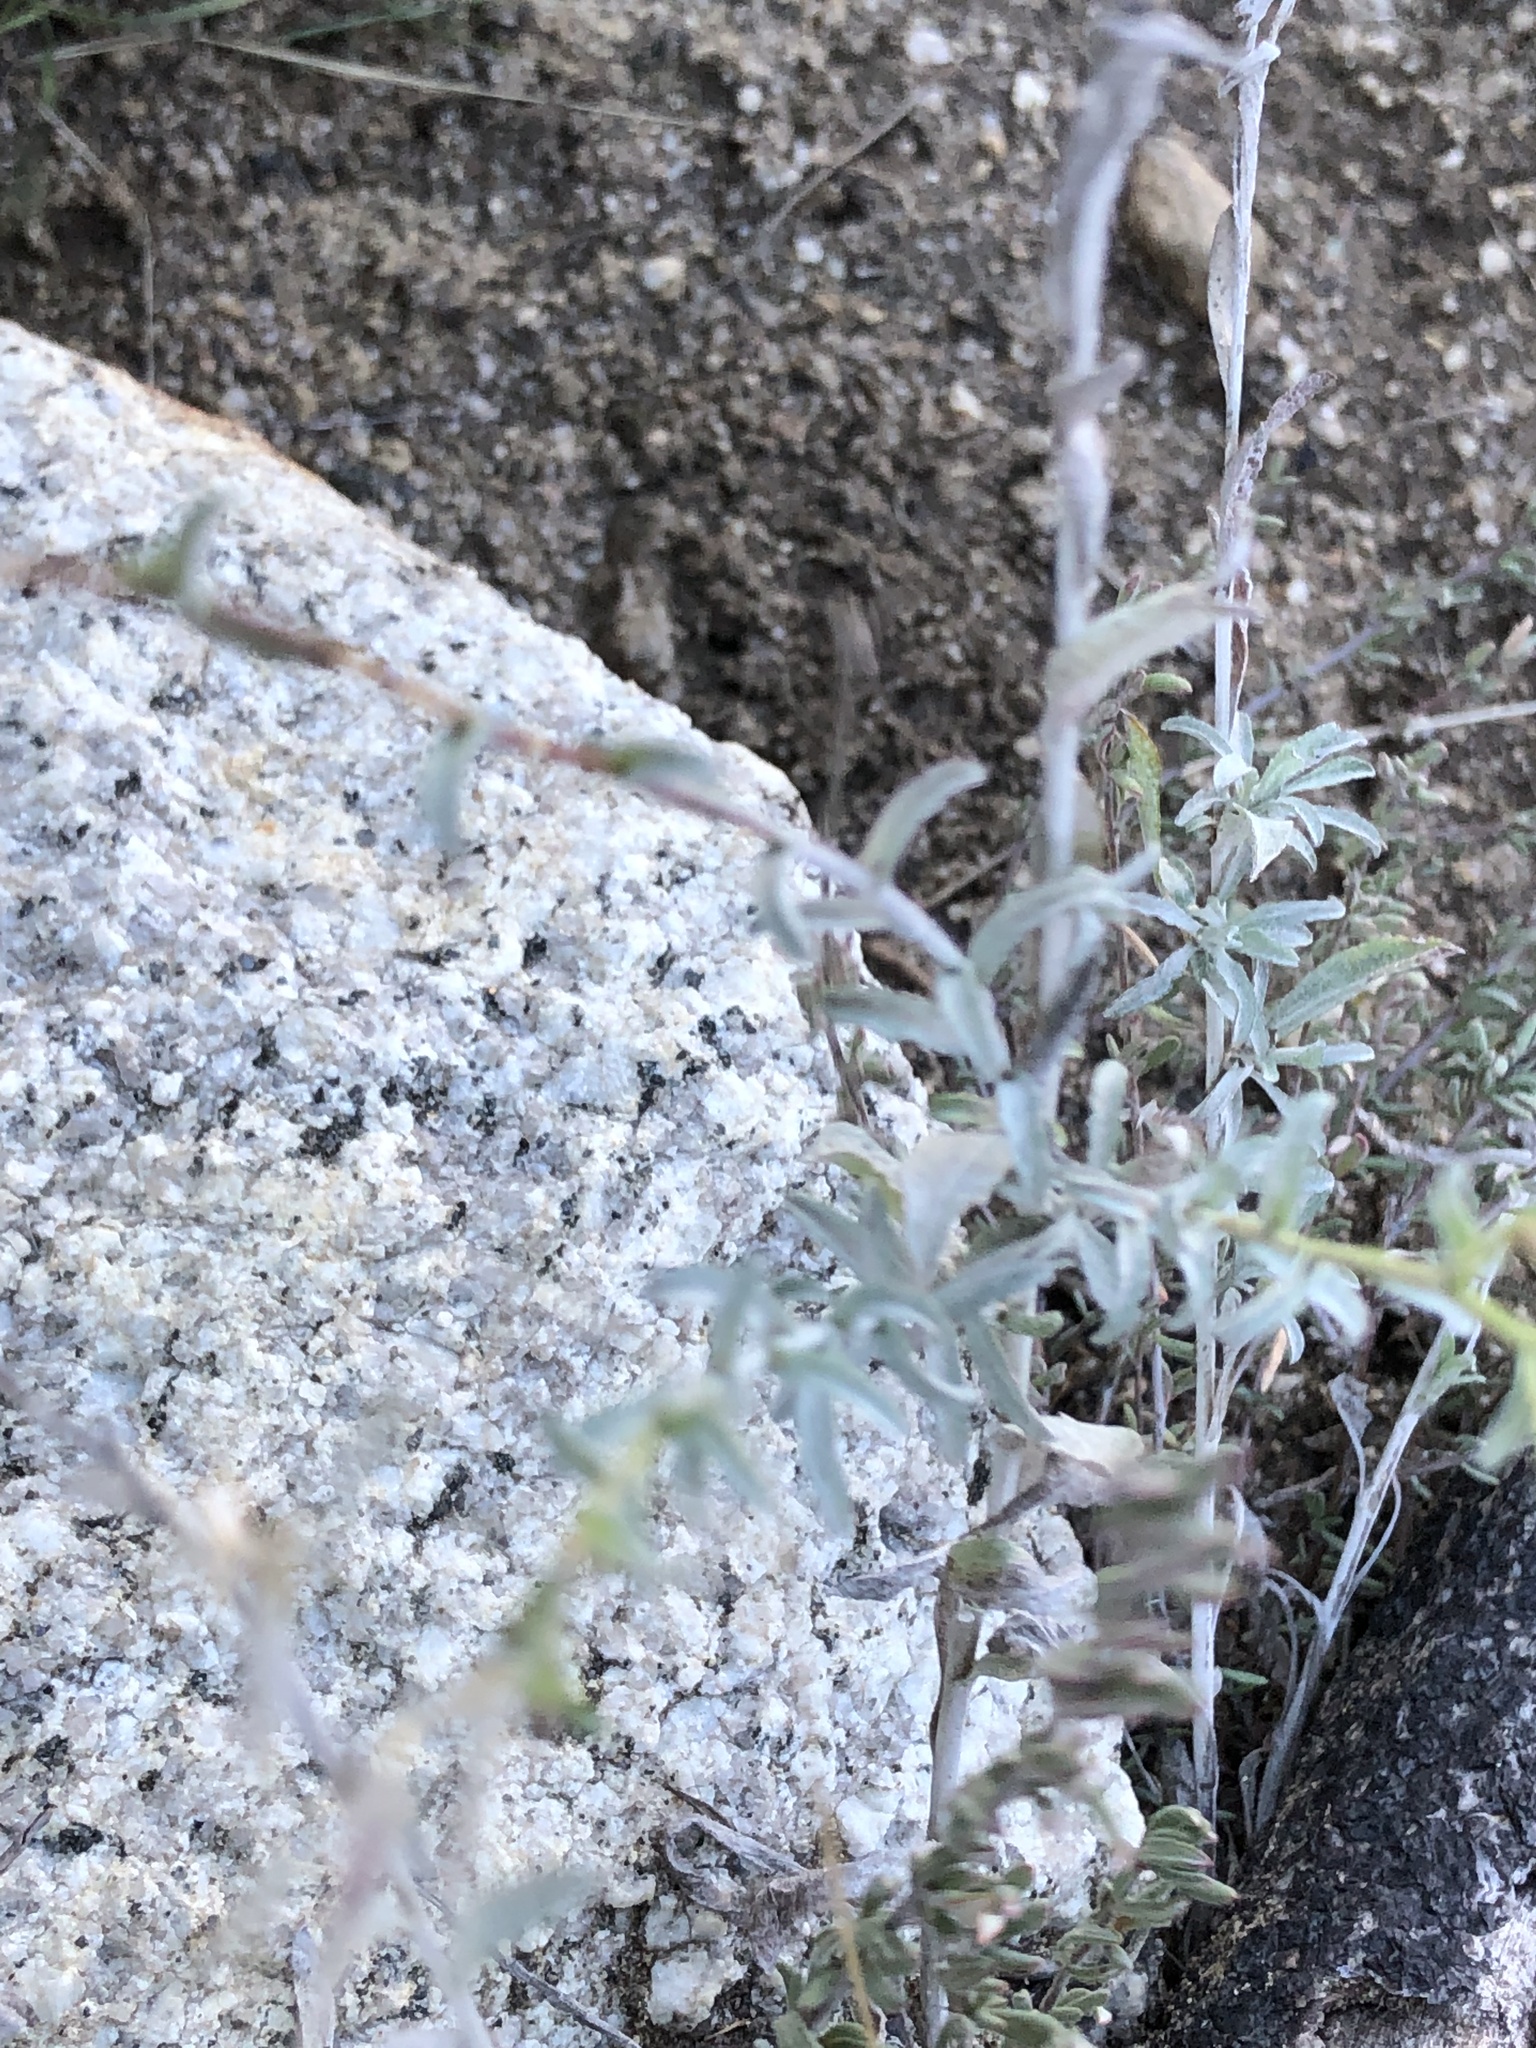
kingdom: Plantae
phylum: Tracheophyta
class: Magnoliopsida
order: Asterales
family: Asteraceae
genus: Corethrogyne
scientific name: Corethrogyne filaginifolia
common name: Sand-aster
